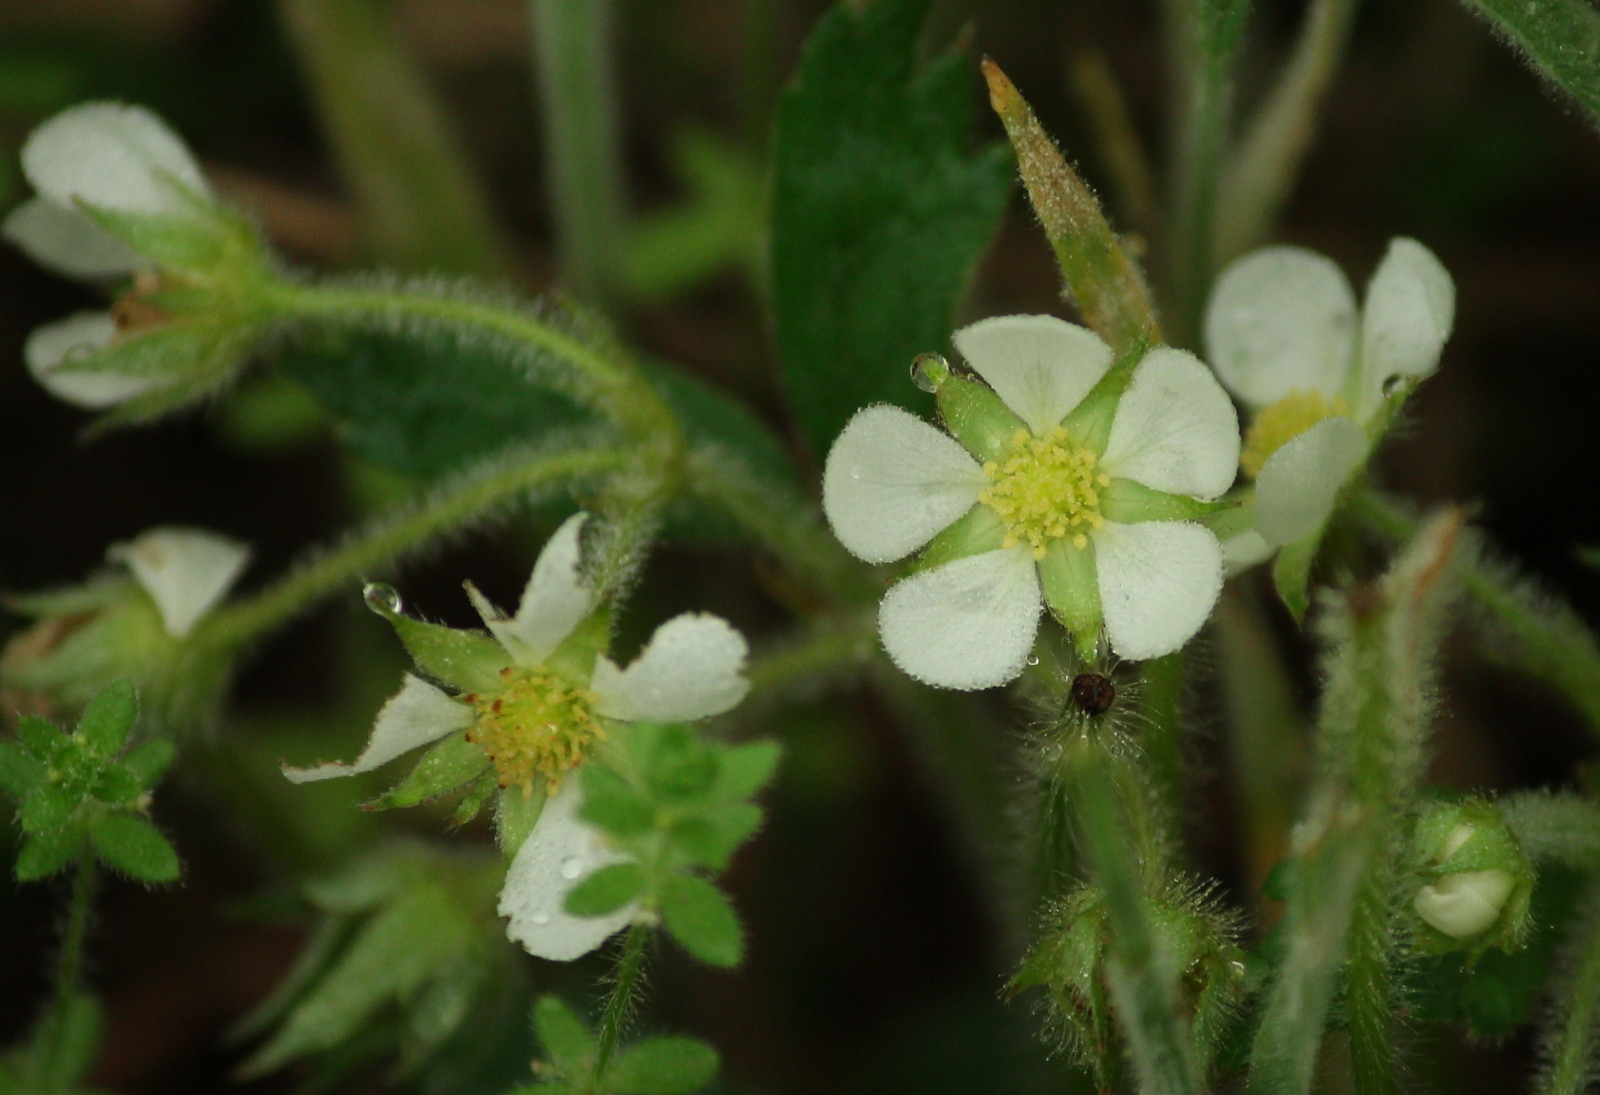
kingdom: Plantae
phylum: Tracheophyta
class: Magnoliopsida
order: Rosales
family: Rosaceae
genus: Fragaria
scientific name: Fragaria vesca
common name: Wild strawberry
